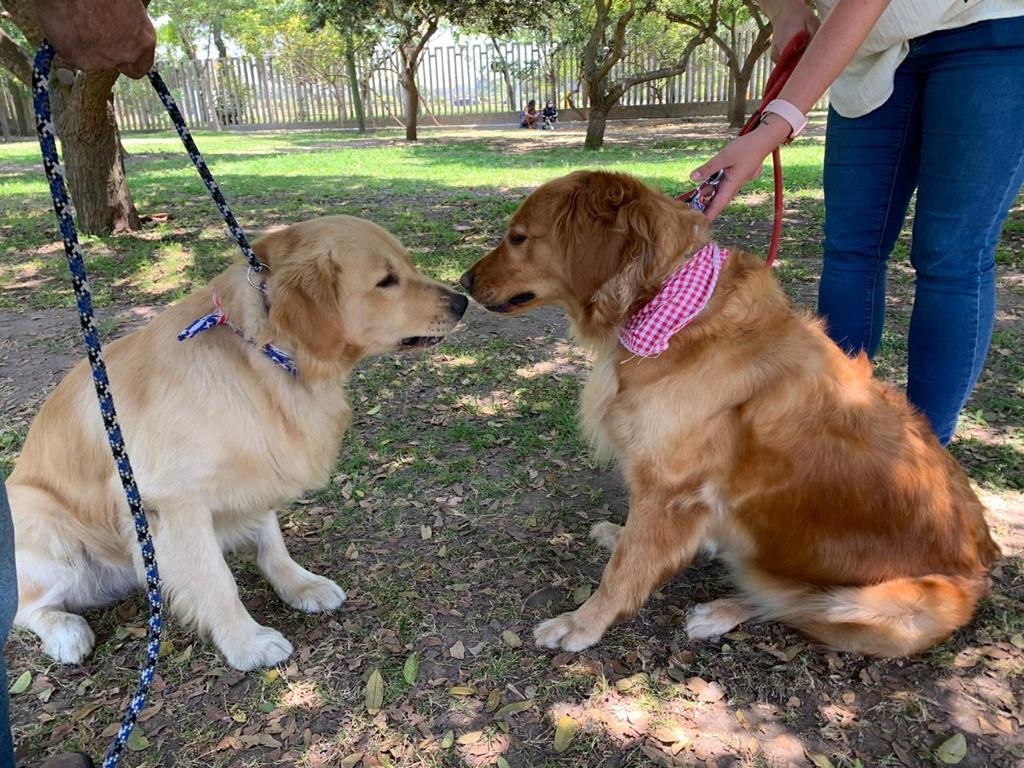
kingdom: Plantae
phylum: Tracheophyta
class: Liliopsida
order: Asparagales
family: Amaryllidaceae
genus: Nothoscordum
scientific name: Nothoscordum gracile
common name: Slender false garlic
